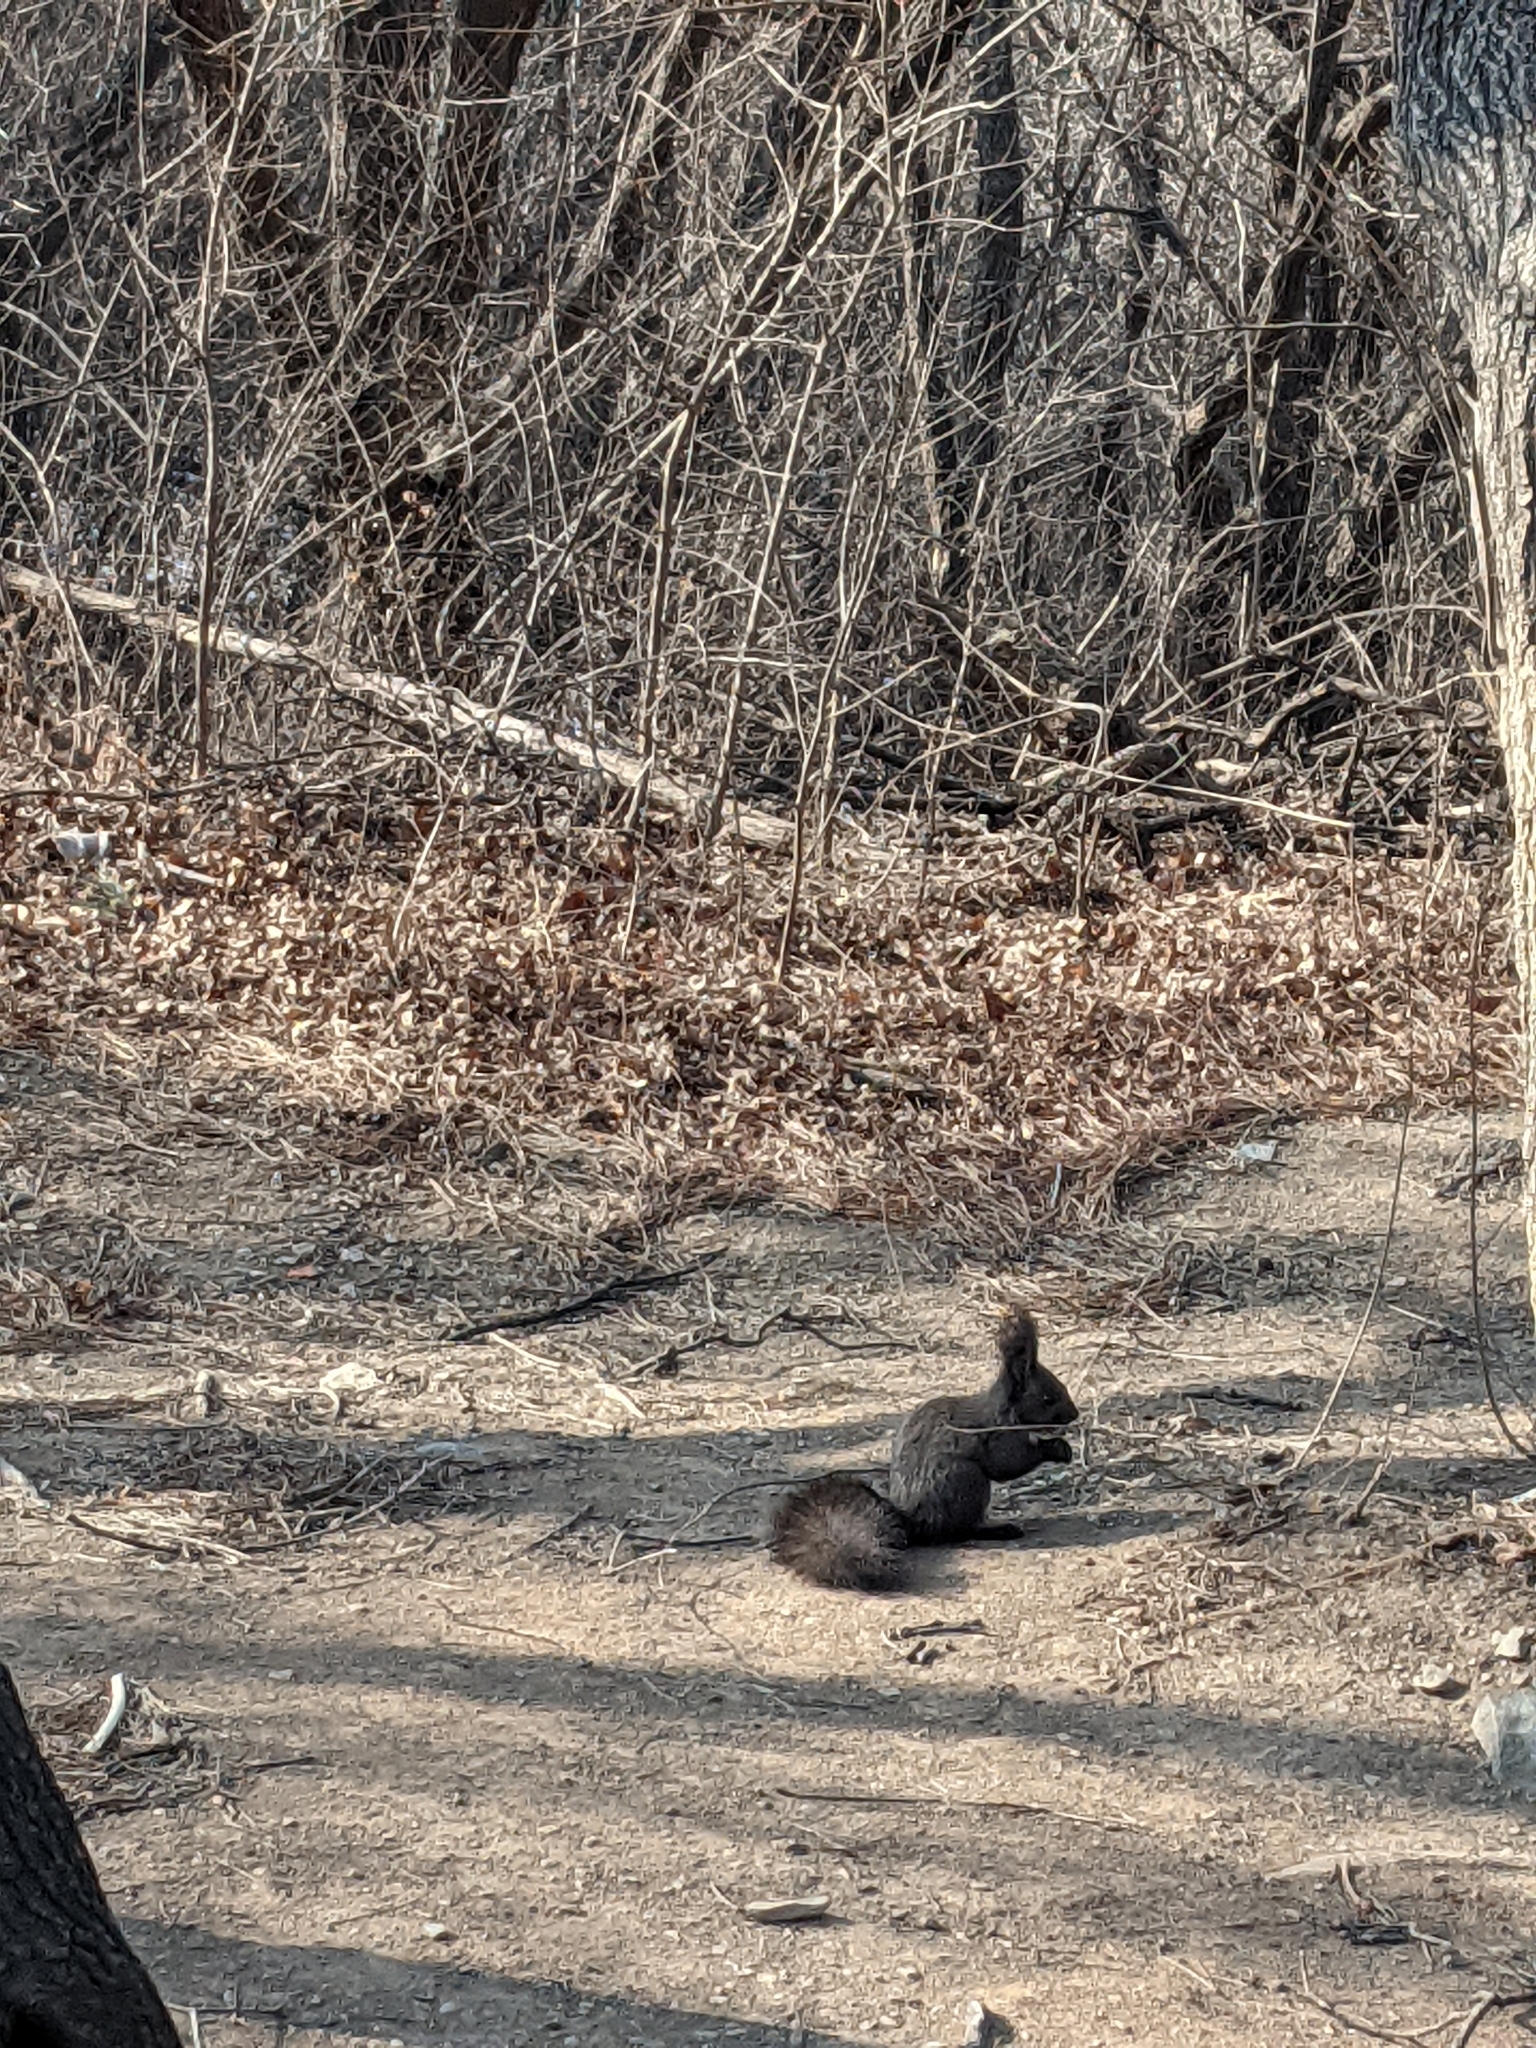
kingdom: Animalia
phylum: Chordata
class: Mammalia
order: Rodentia
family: Sciuridae
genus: Sciurus
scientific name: Sciurus vulgaris
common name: Eurasian red squirrel
